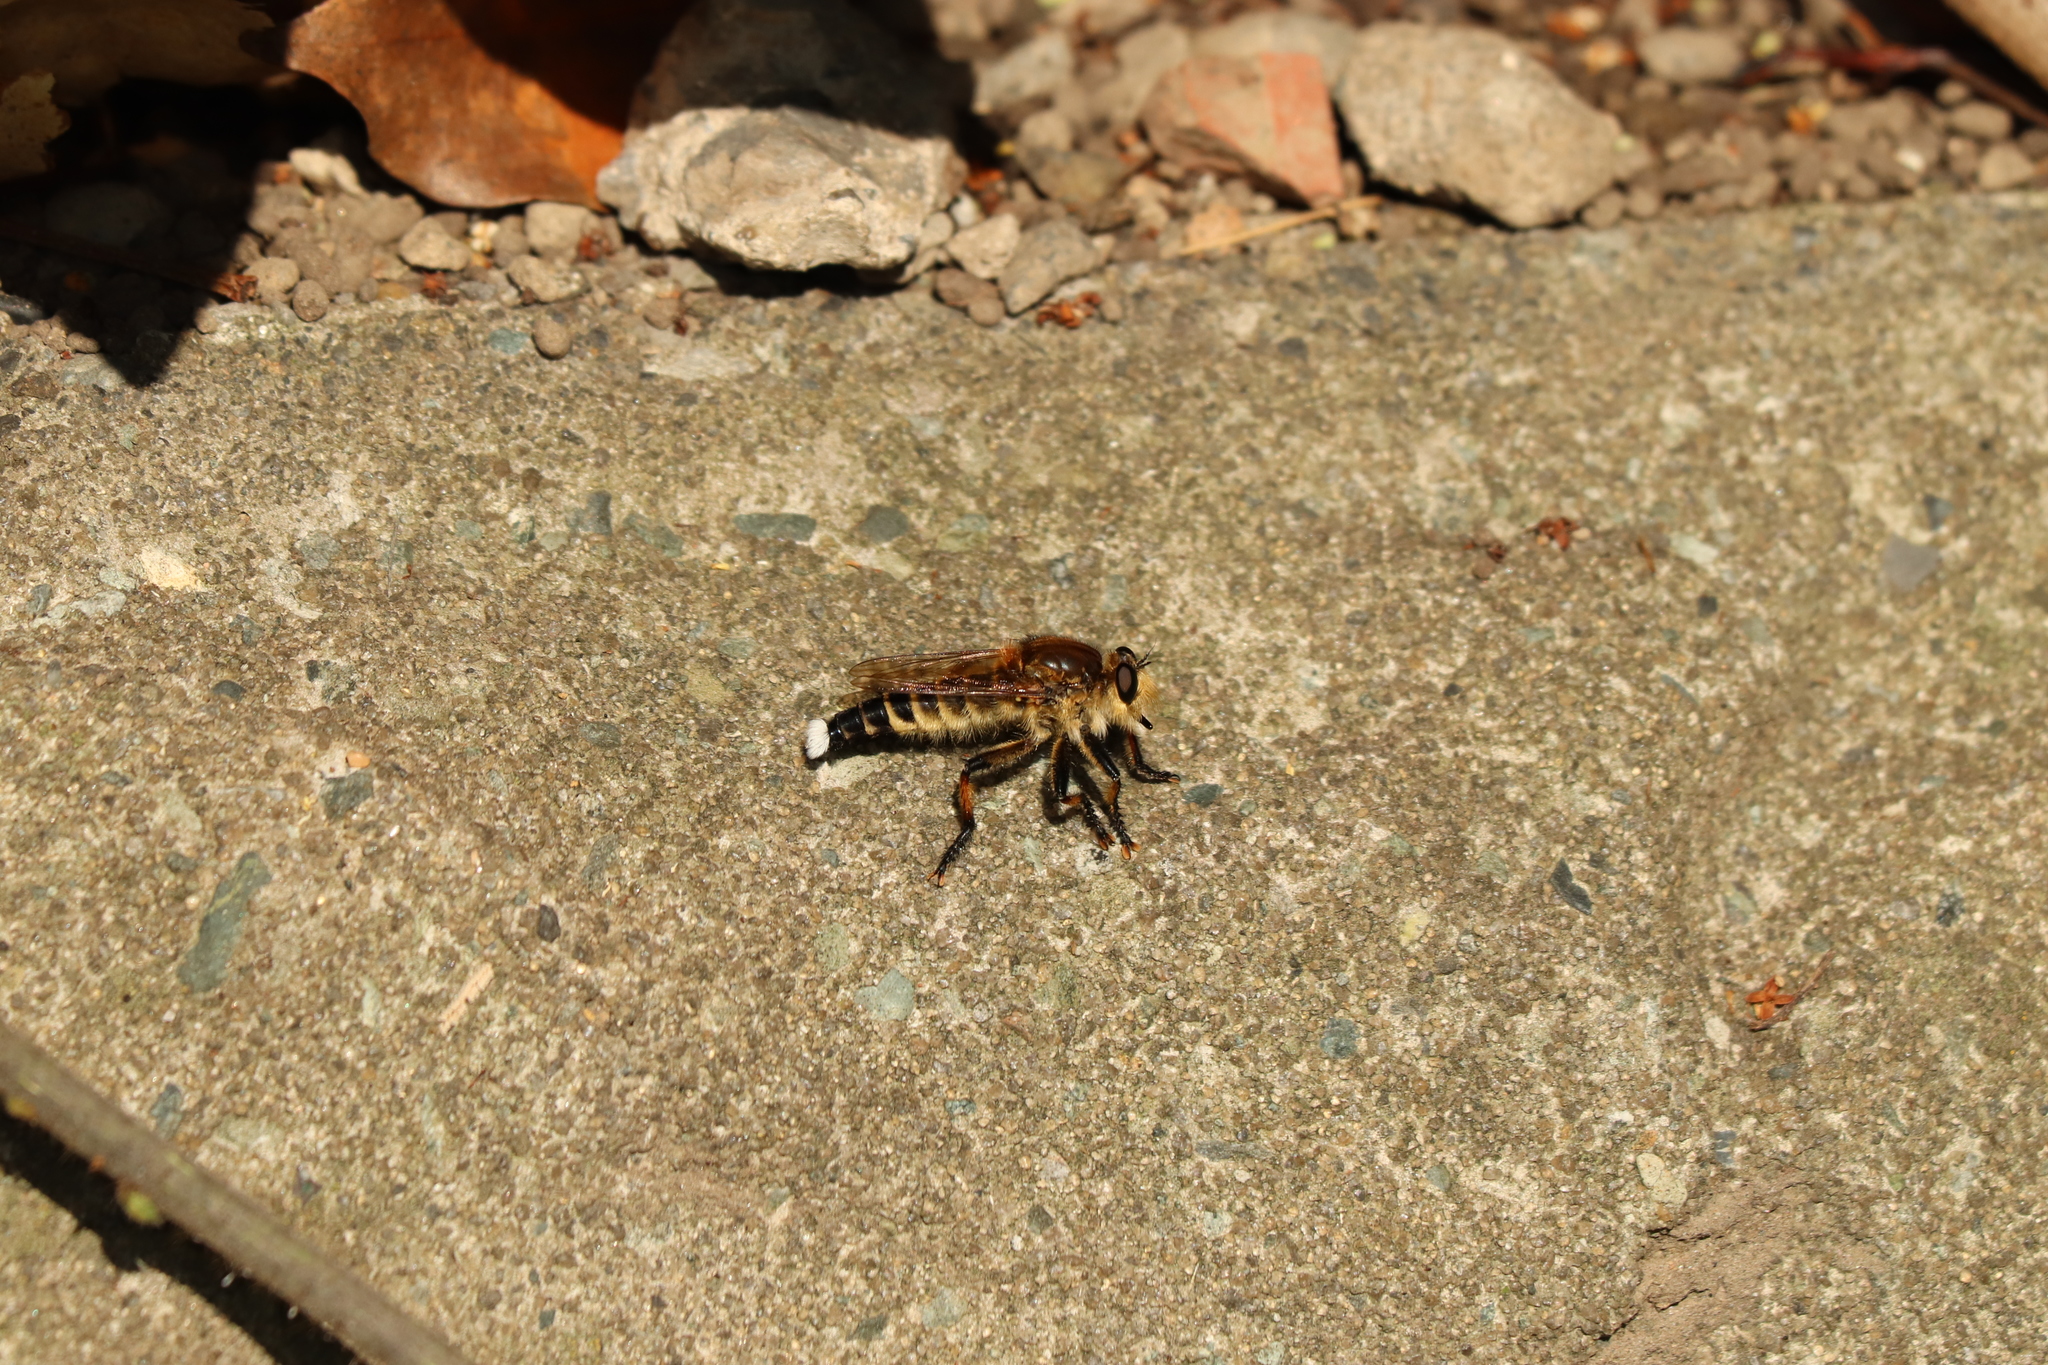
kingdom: Animalia
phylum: Arthropoda
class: Insecta
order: Diptera
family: Asilidae
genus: Promachus
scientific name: Promachus yesonicus
